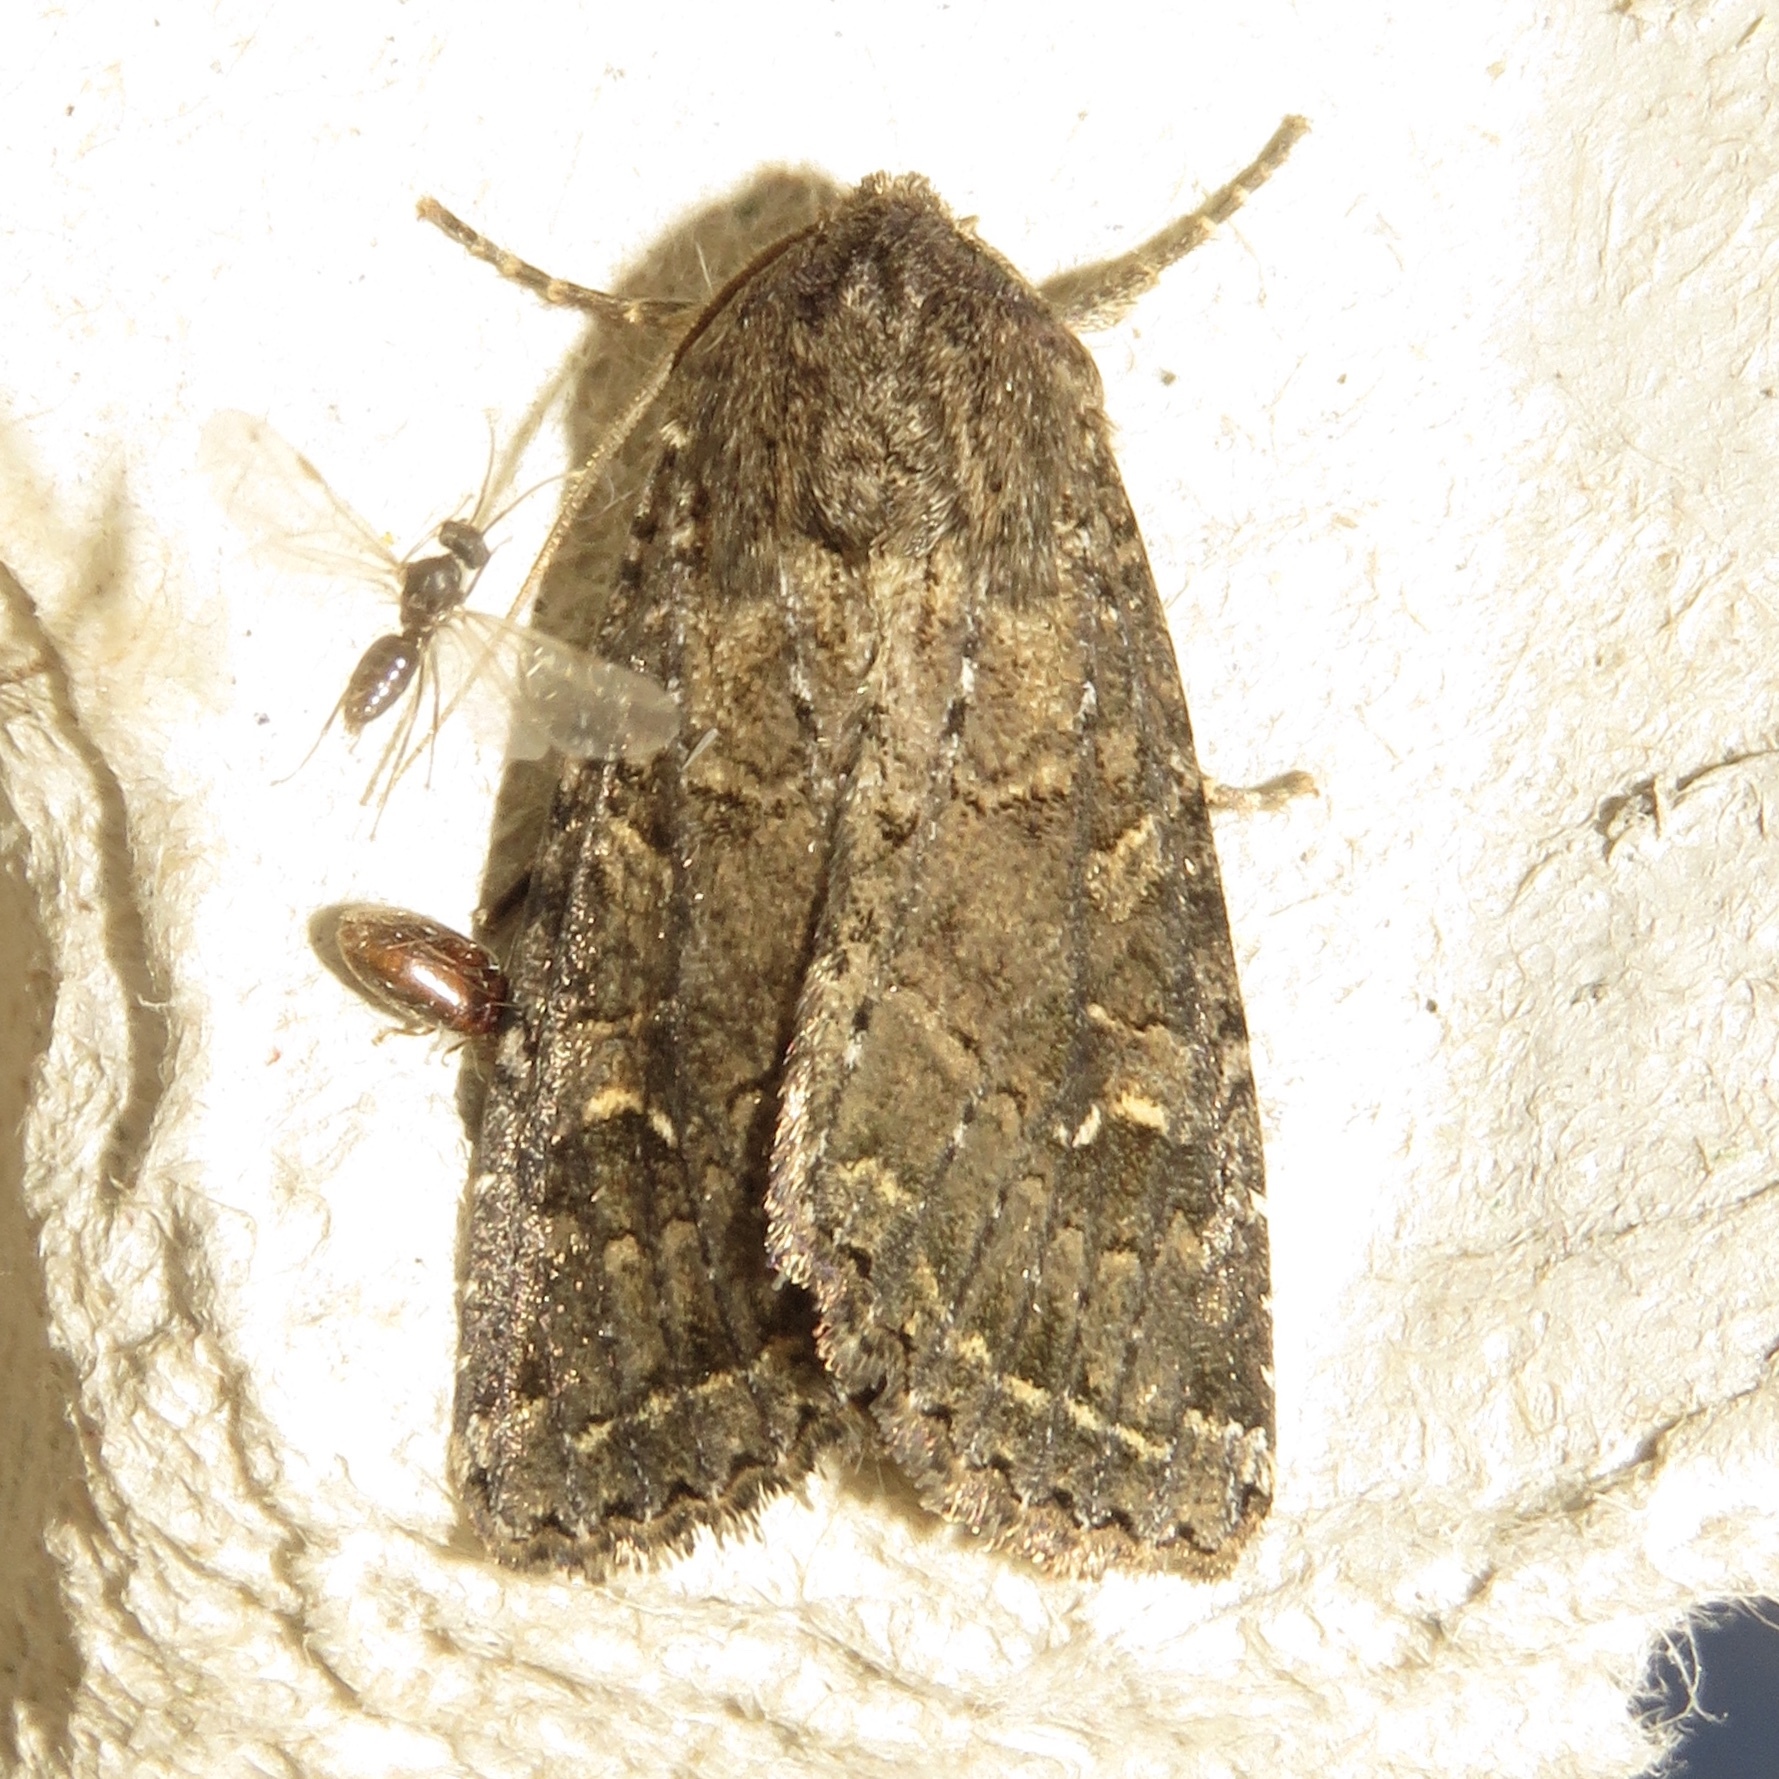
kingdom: Animalia
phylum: Arthropoda
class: Insecta
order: Lepidoptera
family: Noctuidae
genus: Apamea
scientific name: Apamea devastator
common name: Glassy cutworm
